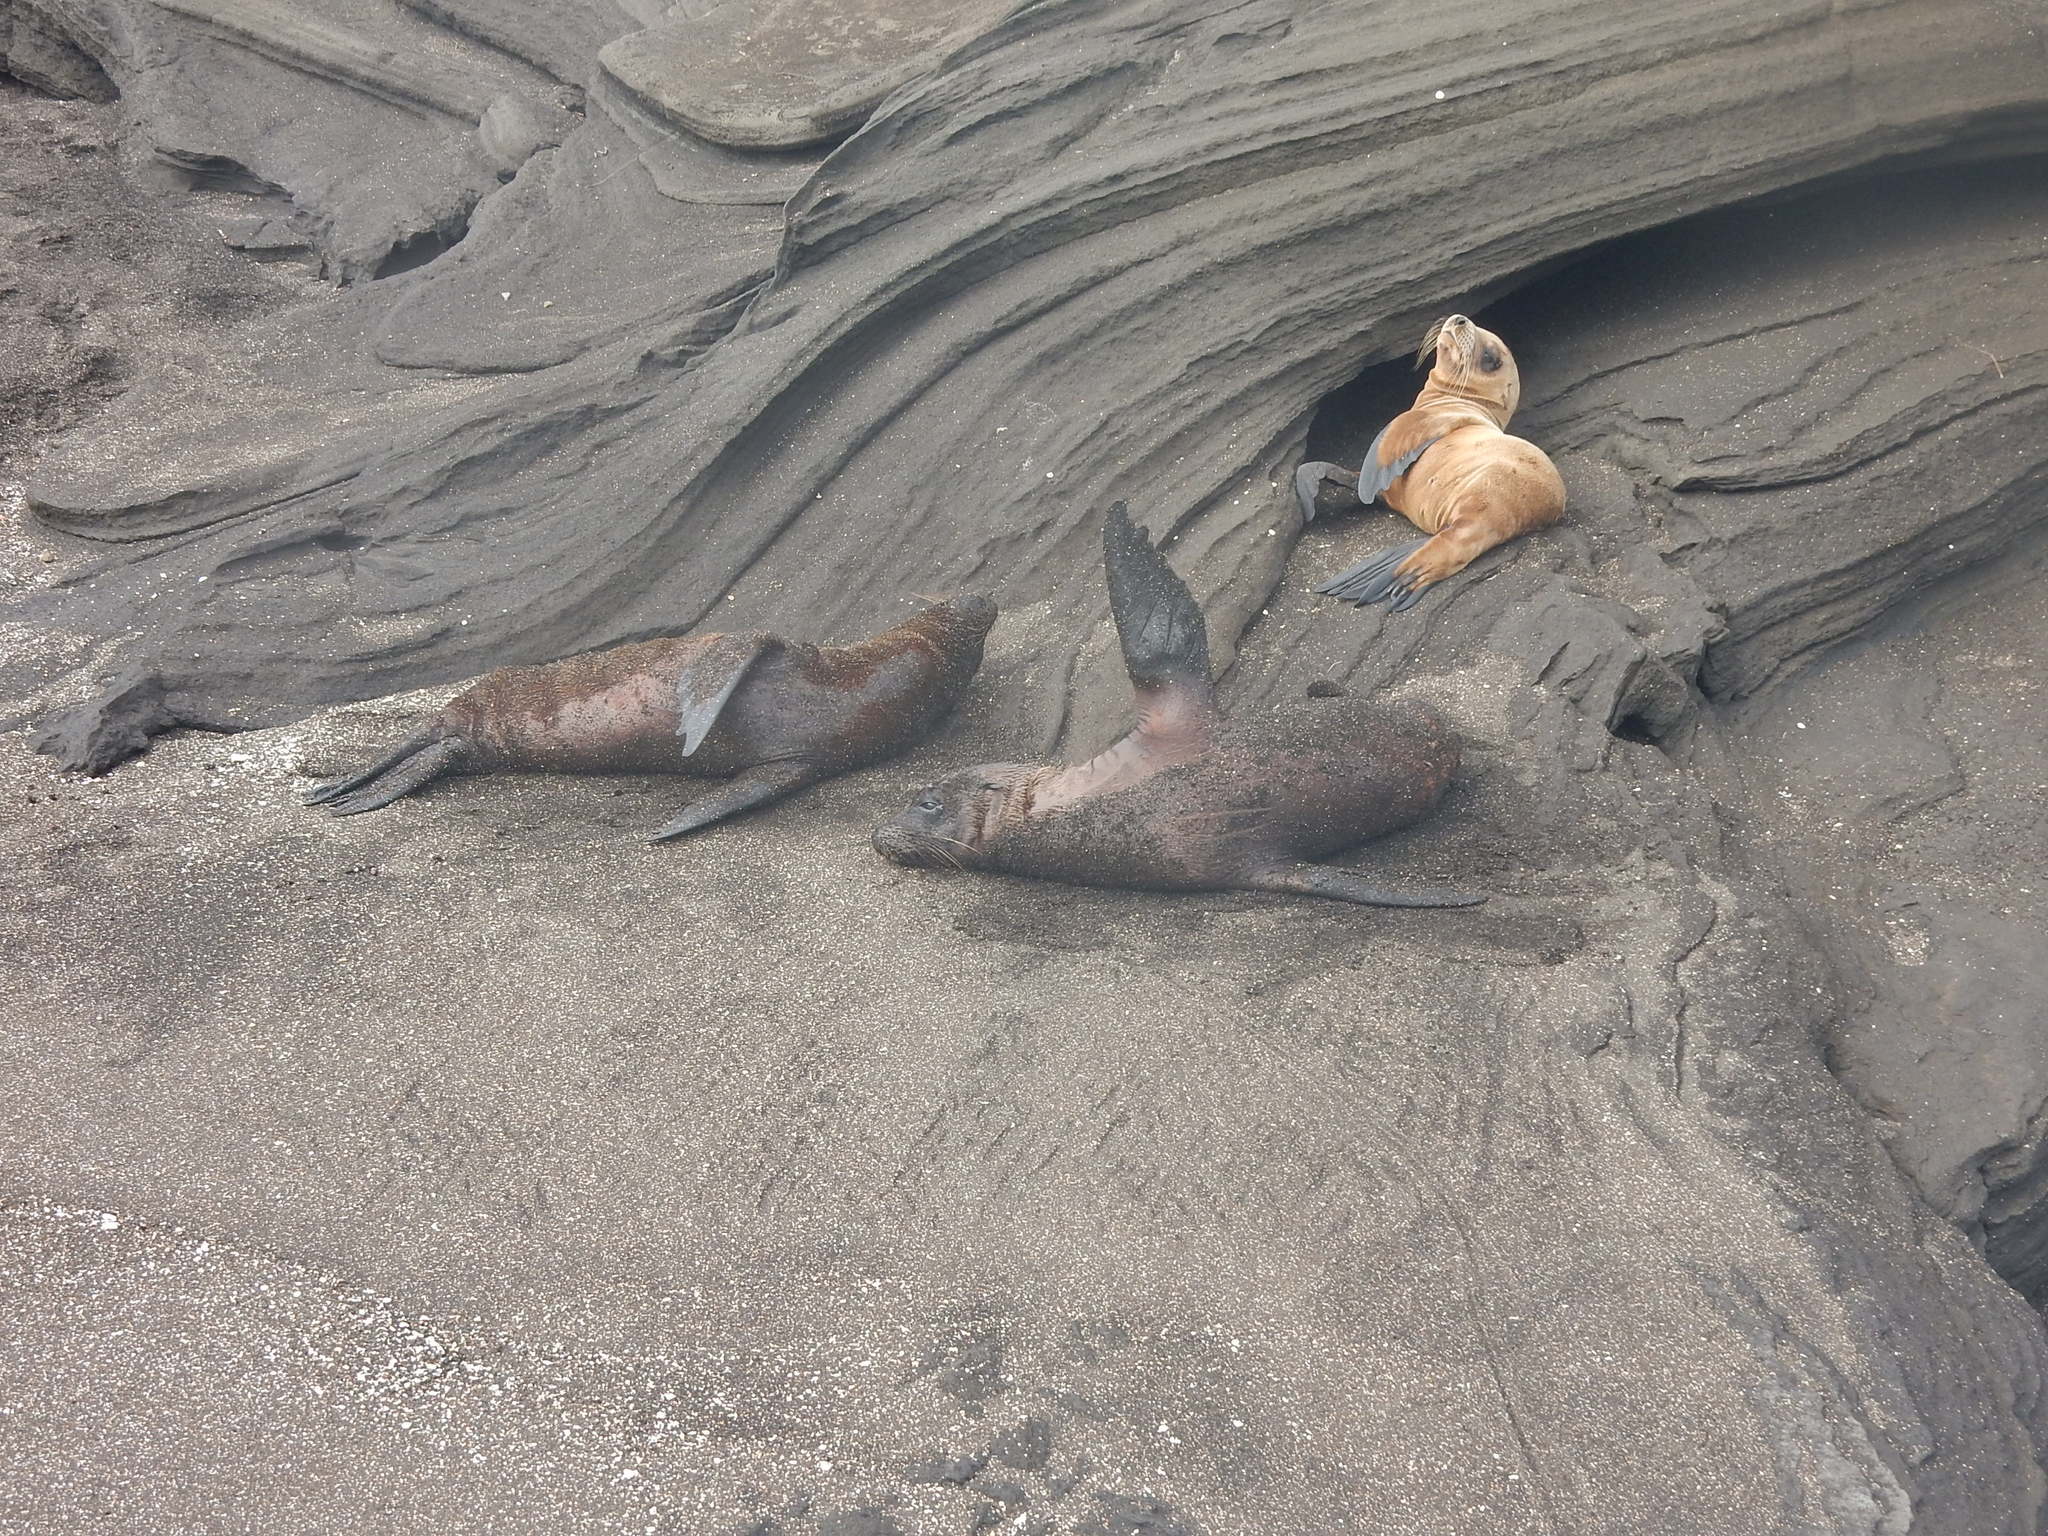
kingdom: Animalia
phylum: Chordata
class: Mammalia
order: Carnivora
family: Otariidae
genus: Zalophus
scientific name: Zalophus wollebaeki
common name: Galapagos sea lion
